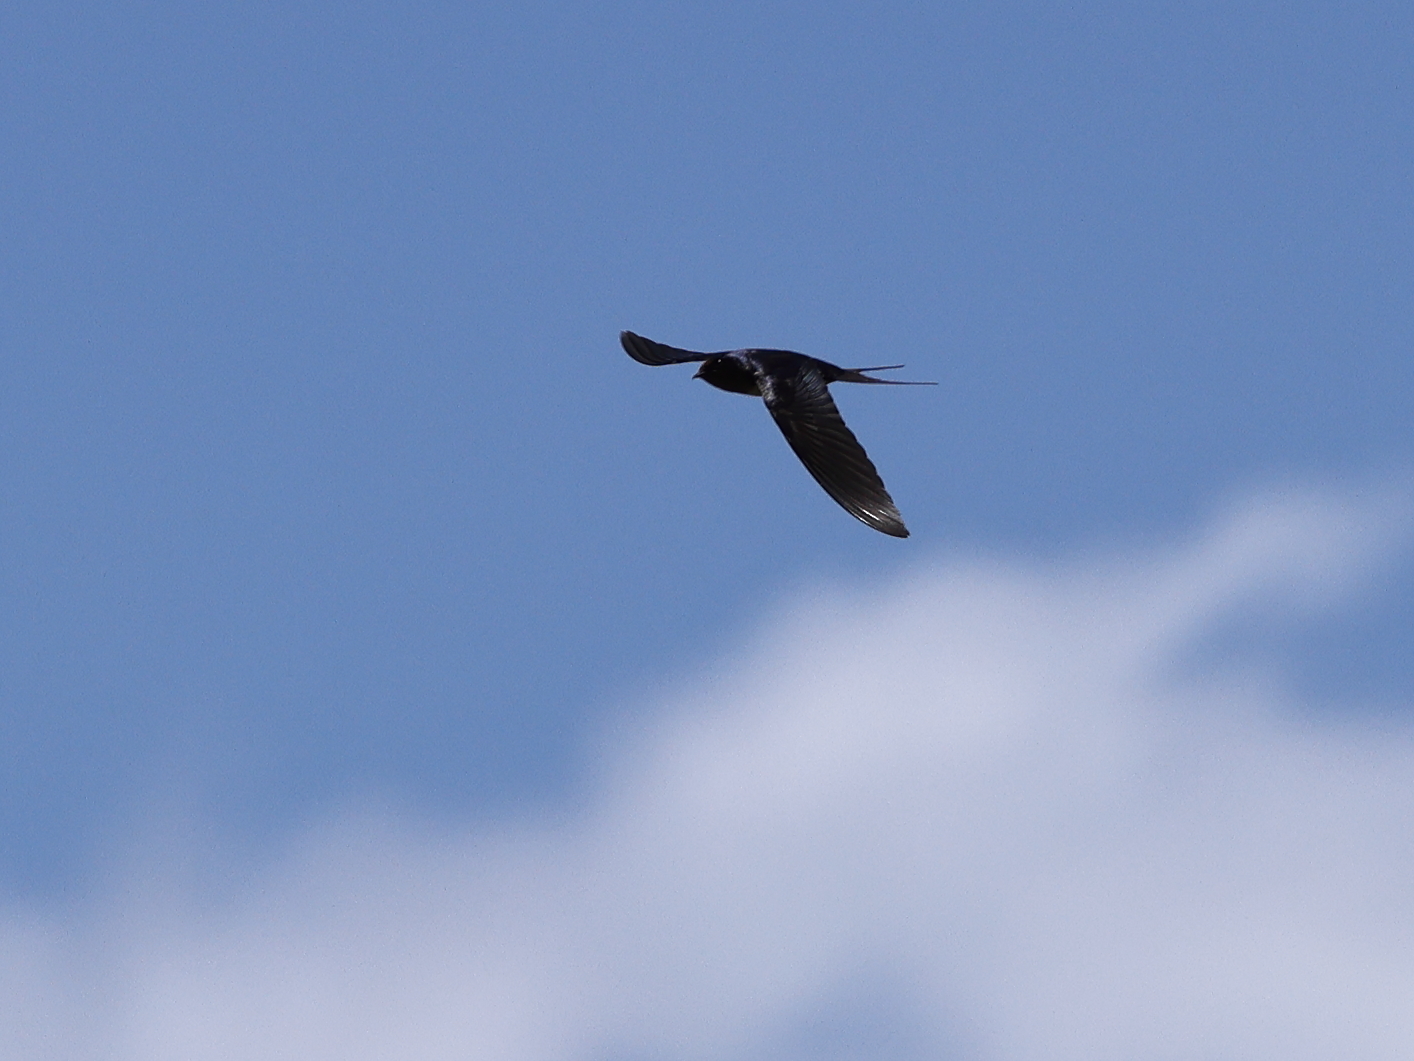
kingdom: Animalia
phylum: Chordata
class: Aves
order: Passeriformes
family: Hirundinidae
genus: Hirundo
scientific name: Hirundo rustica
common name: Barn swallow
